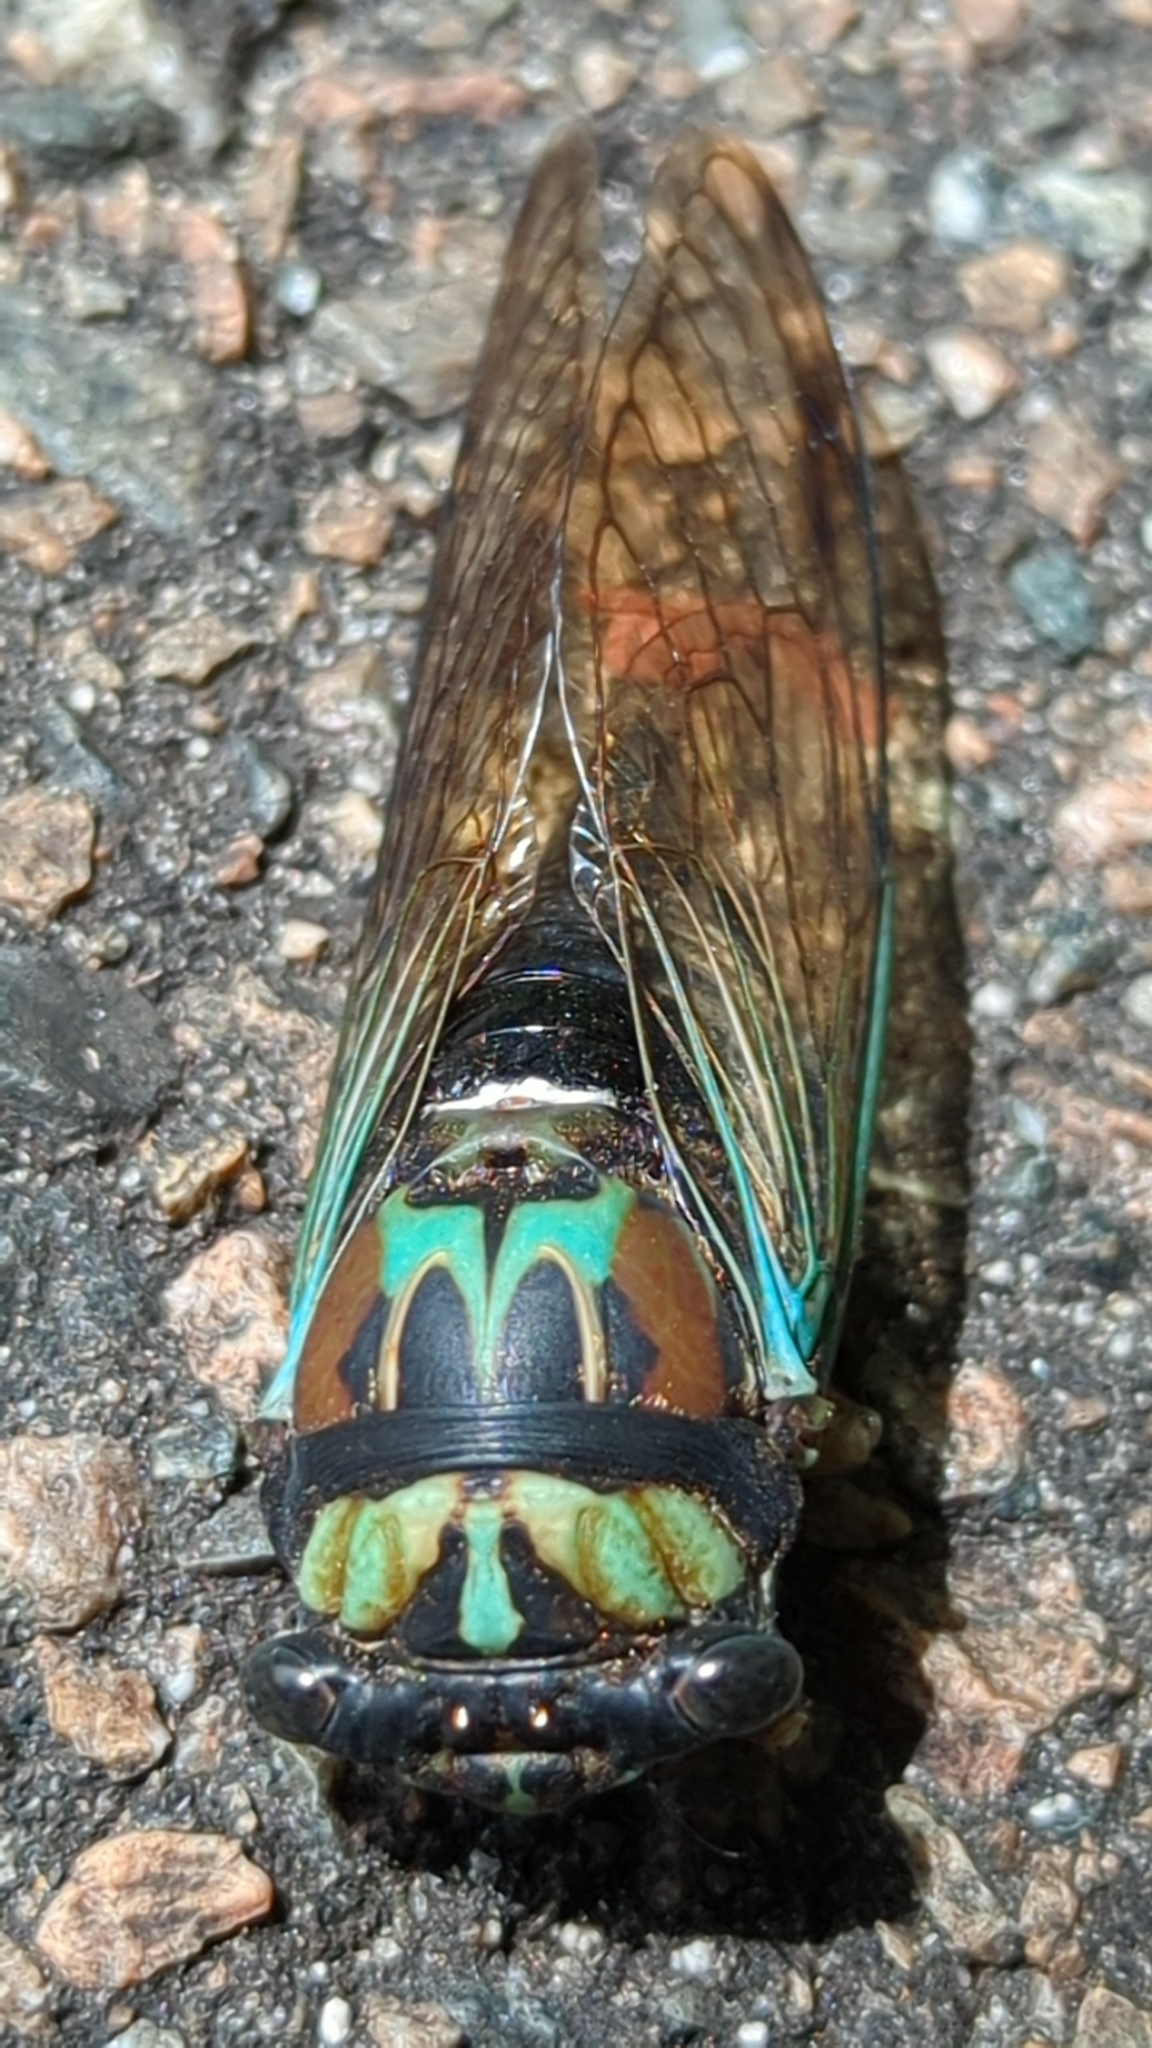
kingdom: Animalia
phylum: Arthropoda
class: Insecta
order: Hemiptera
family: Cicadidae
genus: Neotibicen
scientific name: Neotibicen lyricen
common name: Lyric cicada
